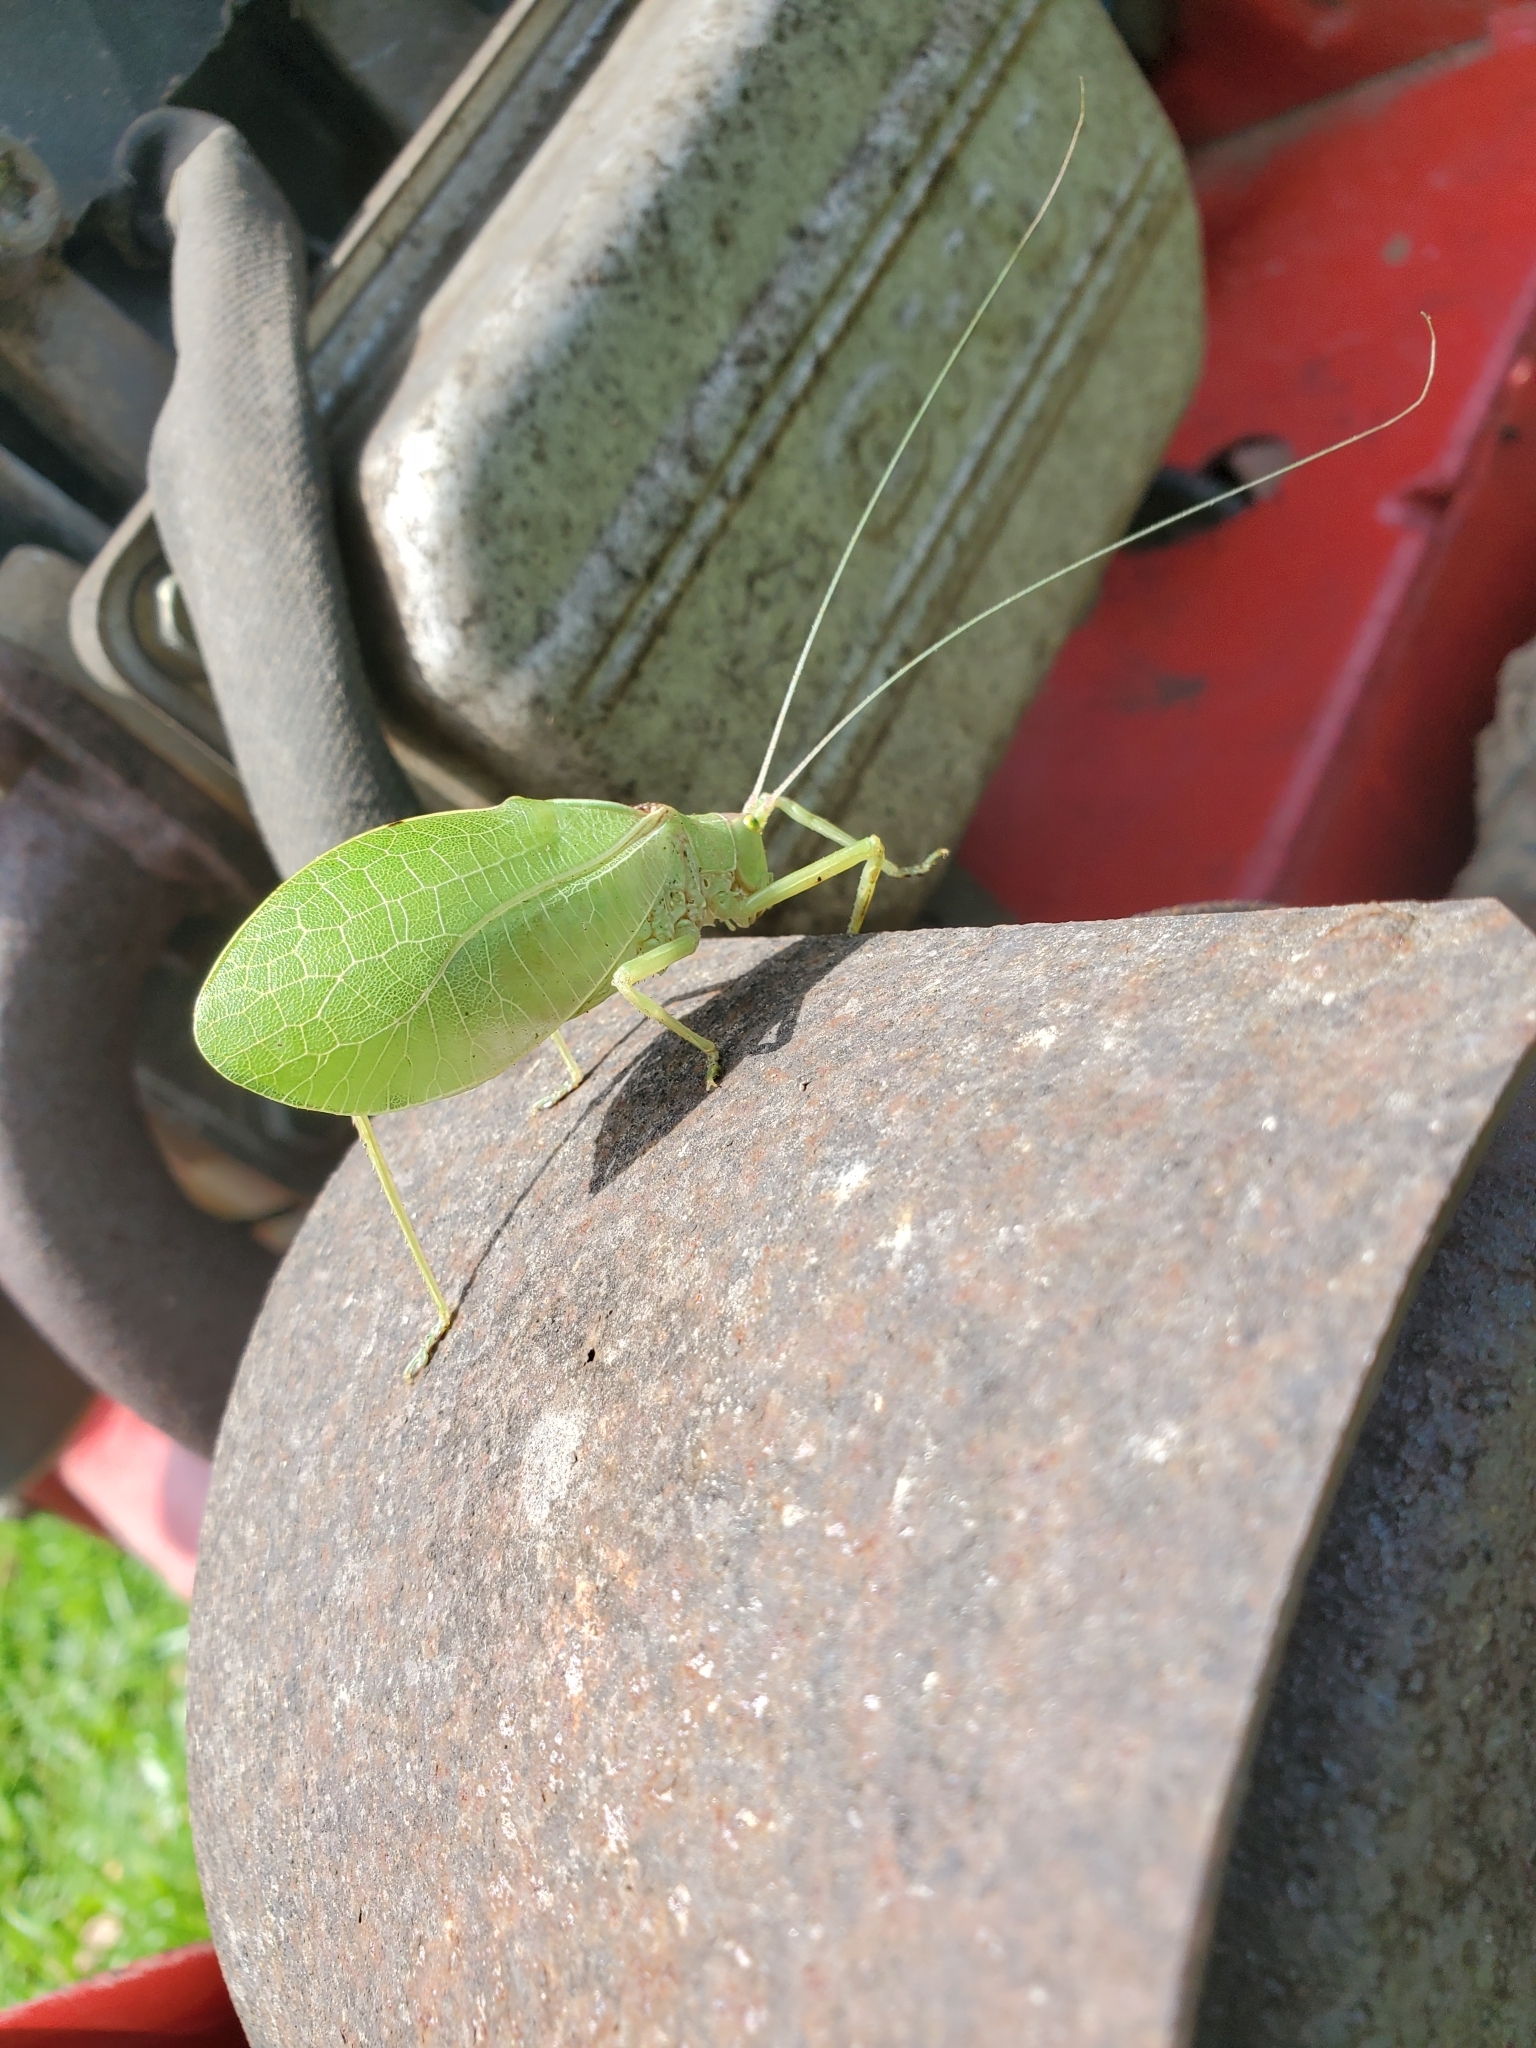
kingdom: Animalia
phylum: Arthropoda
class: Insecta
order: Orthoptera
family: Tettigoniidae
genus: Pterophylla
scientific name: Pterophylla camellifolia
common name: Common true katydid
